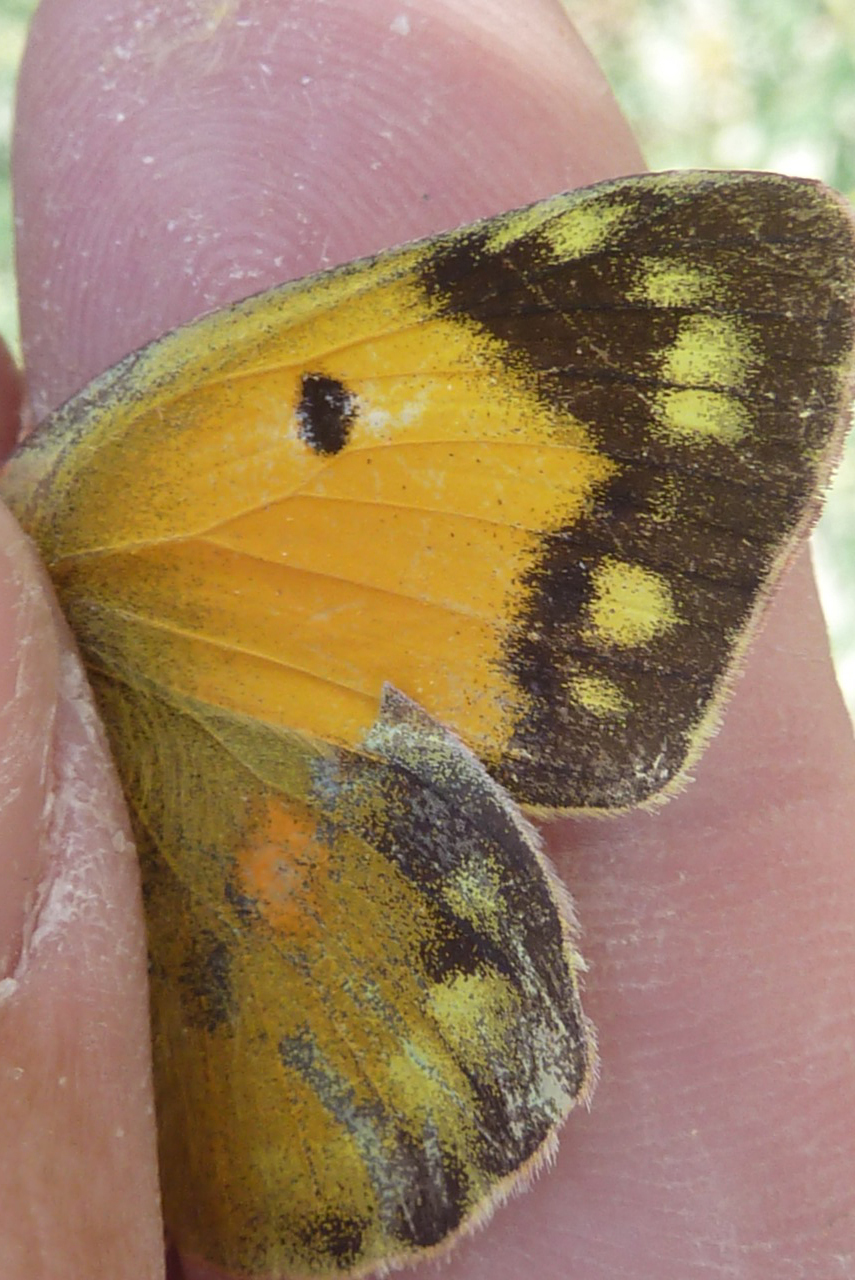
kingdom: Animalia
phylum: Arthropoda
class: Insecta
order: Lepidoptera
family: Pieridae
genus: Colias
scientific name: Colias croceus
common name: Clouded yellow
